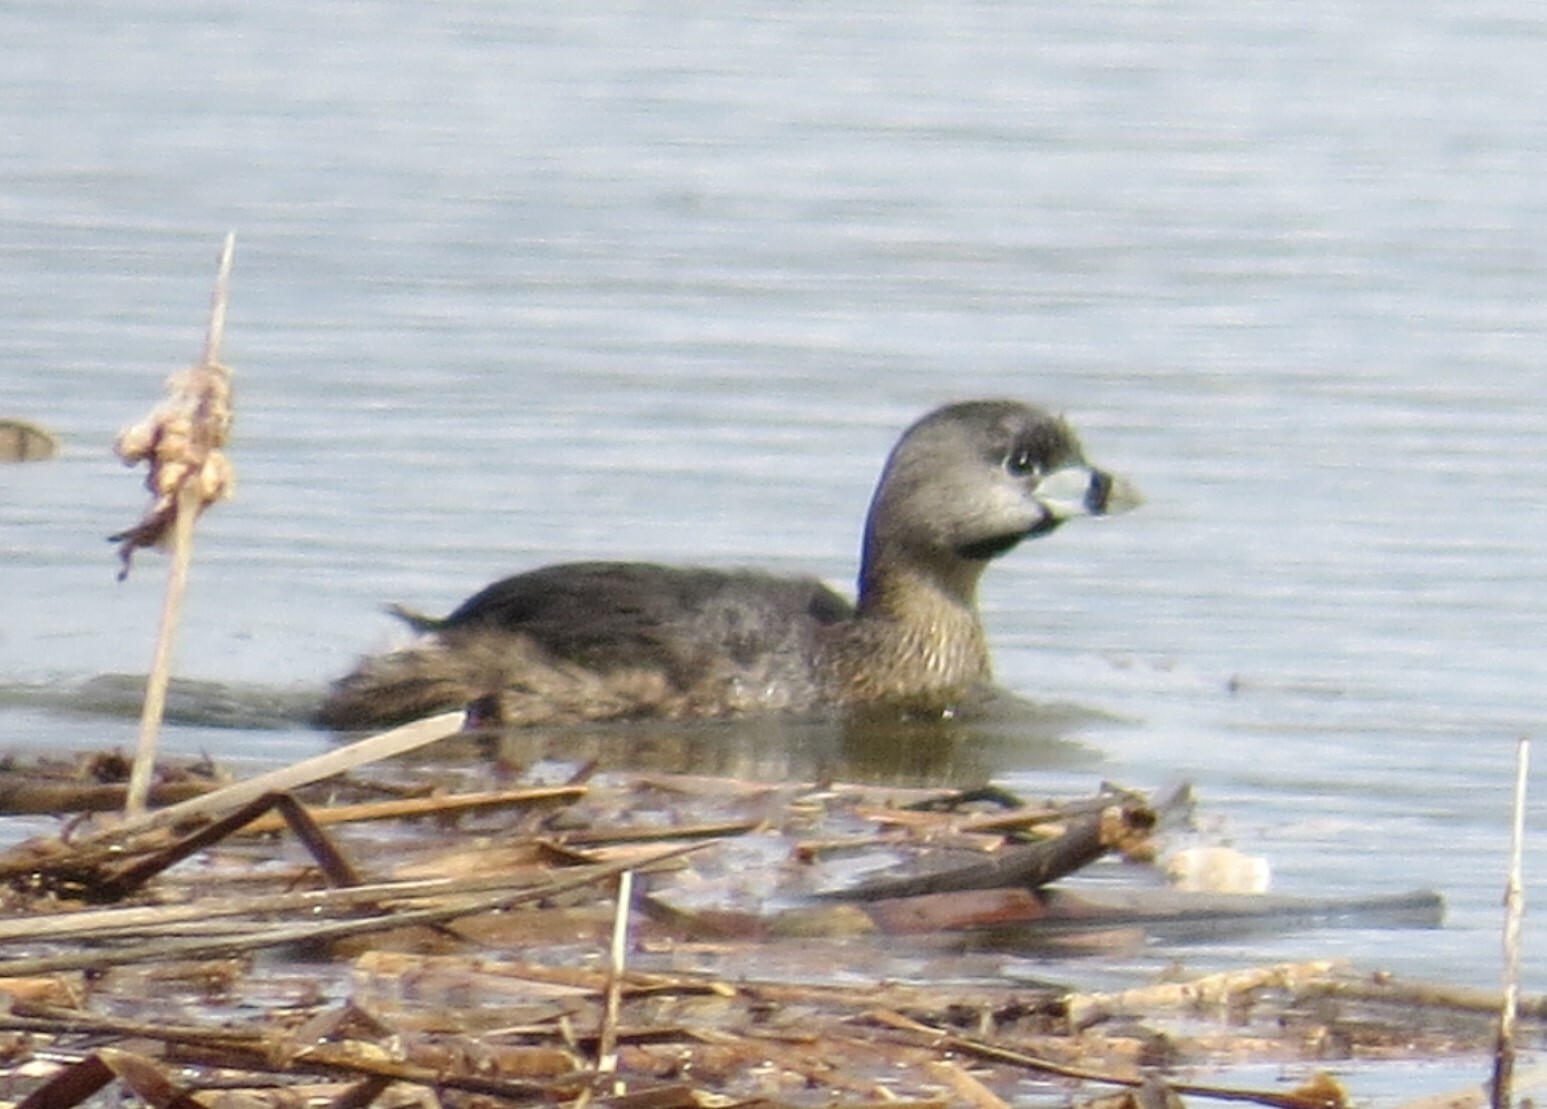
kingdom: Animalia
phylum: Chordata
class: Aves
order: Podicipediformes
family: Podicipedidae
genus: Podilymbus
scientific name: Podilymbus podiceps
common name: Pied-billed grebe
